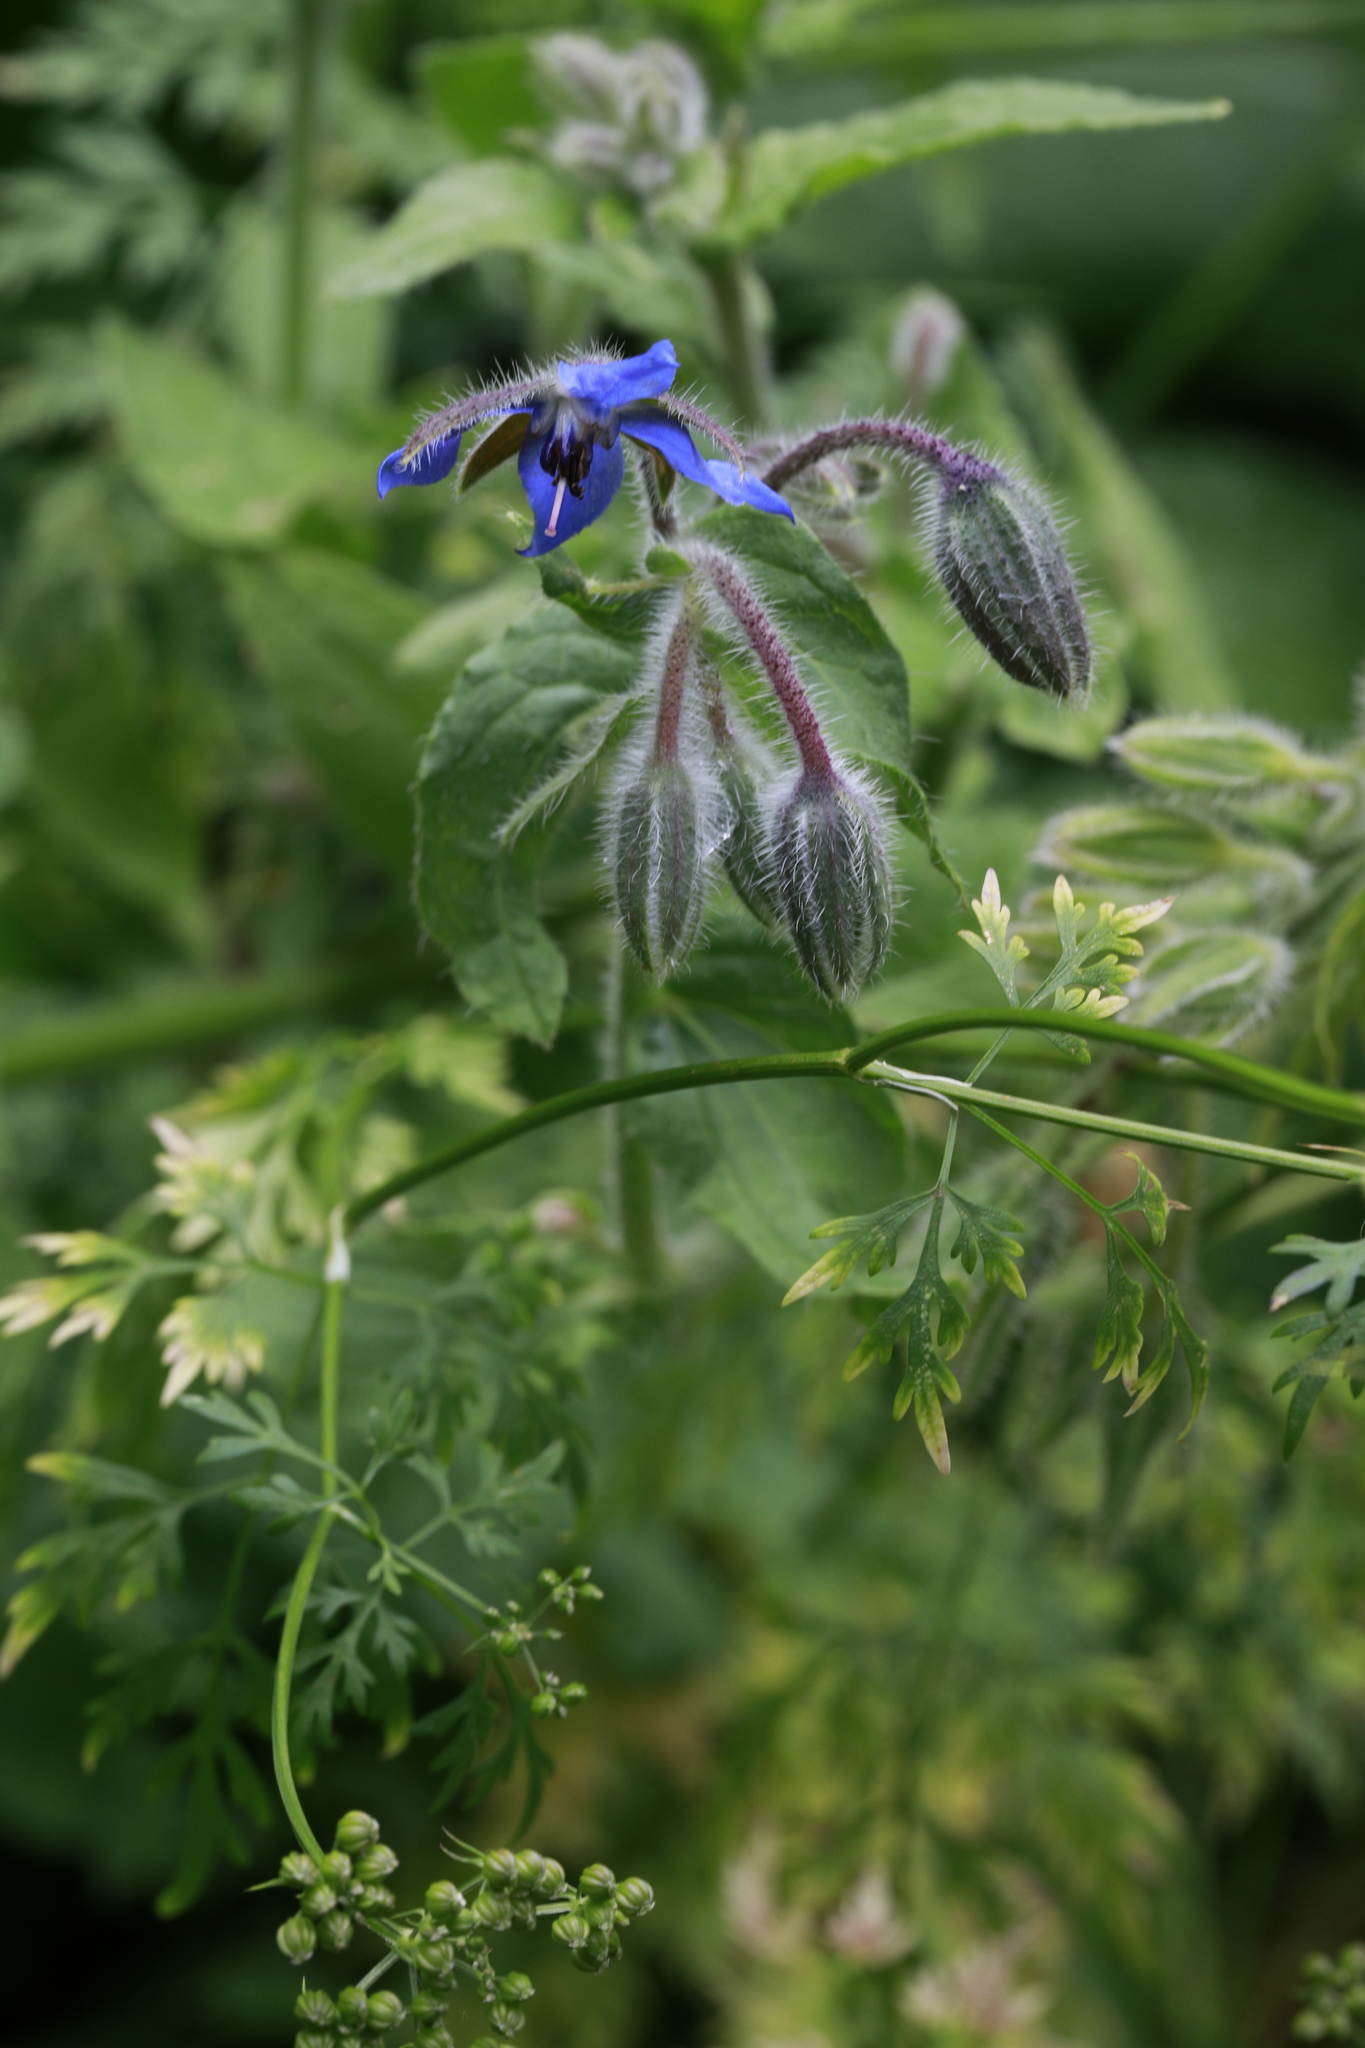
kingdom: Plantae
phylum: Tracheophyta
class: Magnoliopsida
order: Boraginales
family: Boraginaceae
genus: Borago
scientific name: Borago officinalis
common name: Borage
